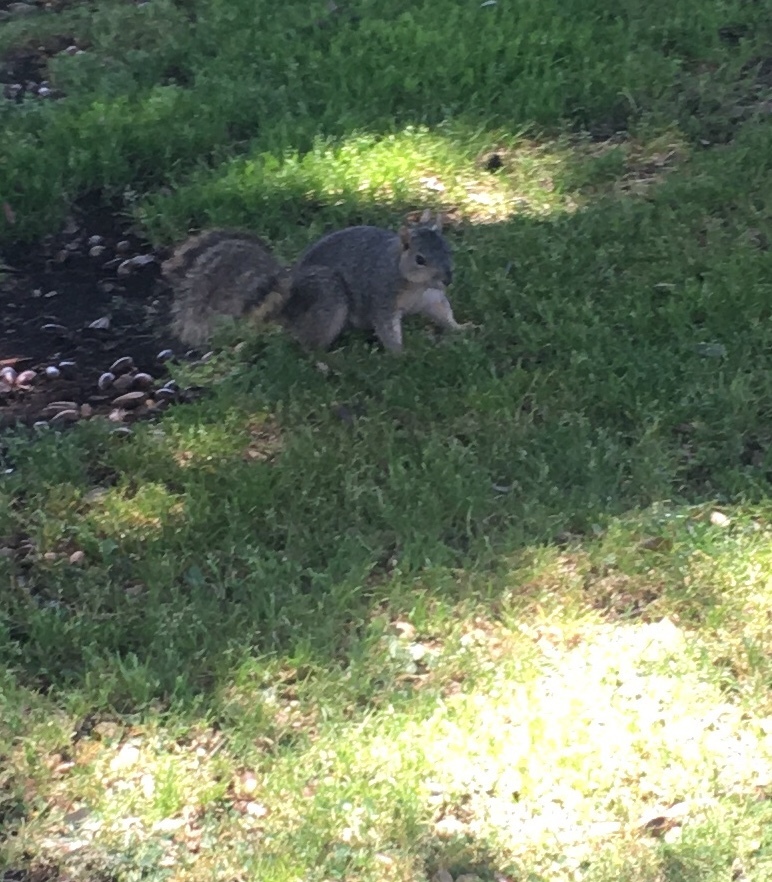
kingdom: Animalia
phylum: Chordata
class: Mammalia
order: Rodentia
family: Sciuridae
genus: Sciurus
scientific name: Sciurus niger
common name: Fox squirrel
